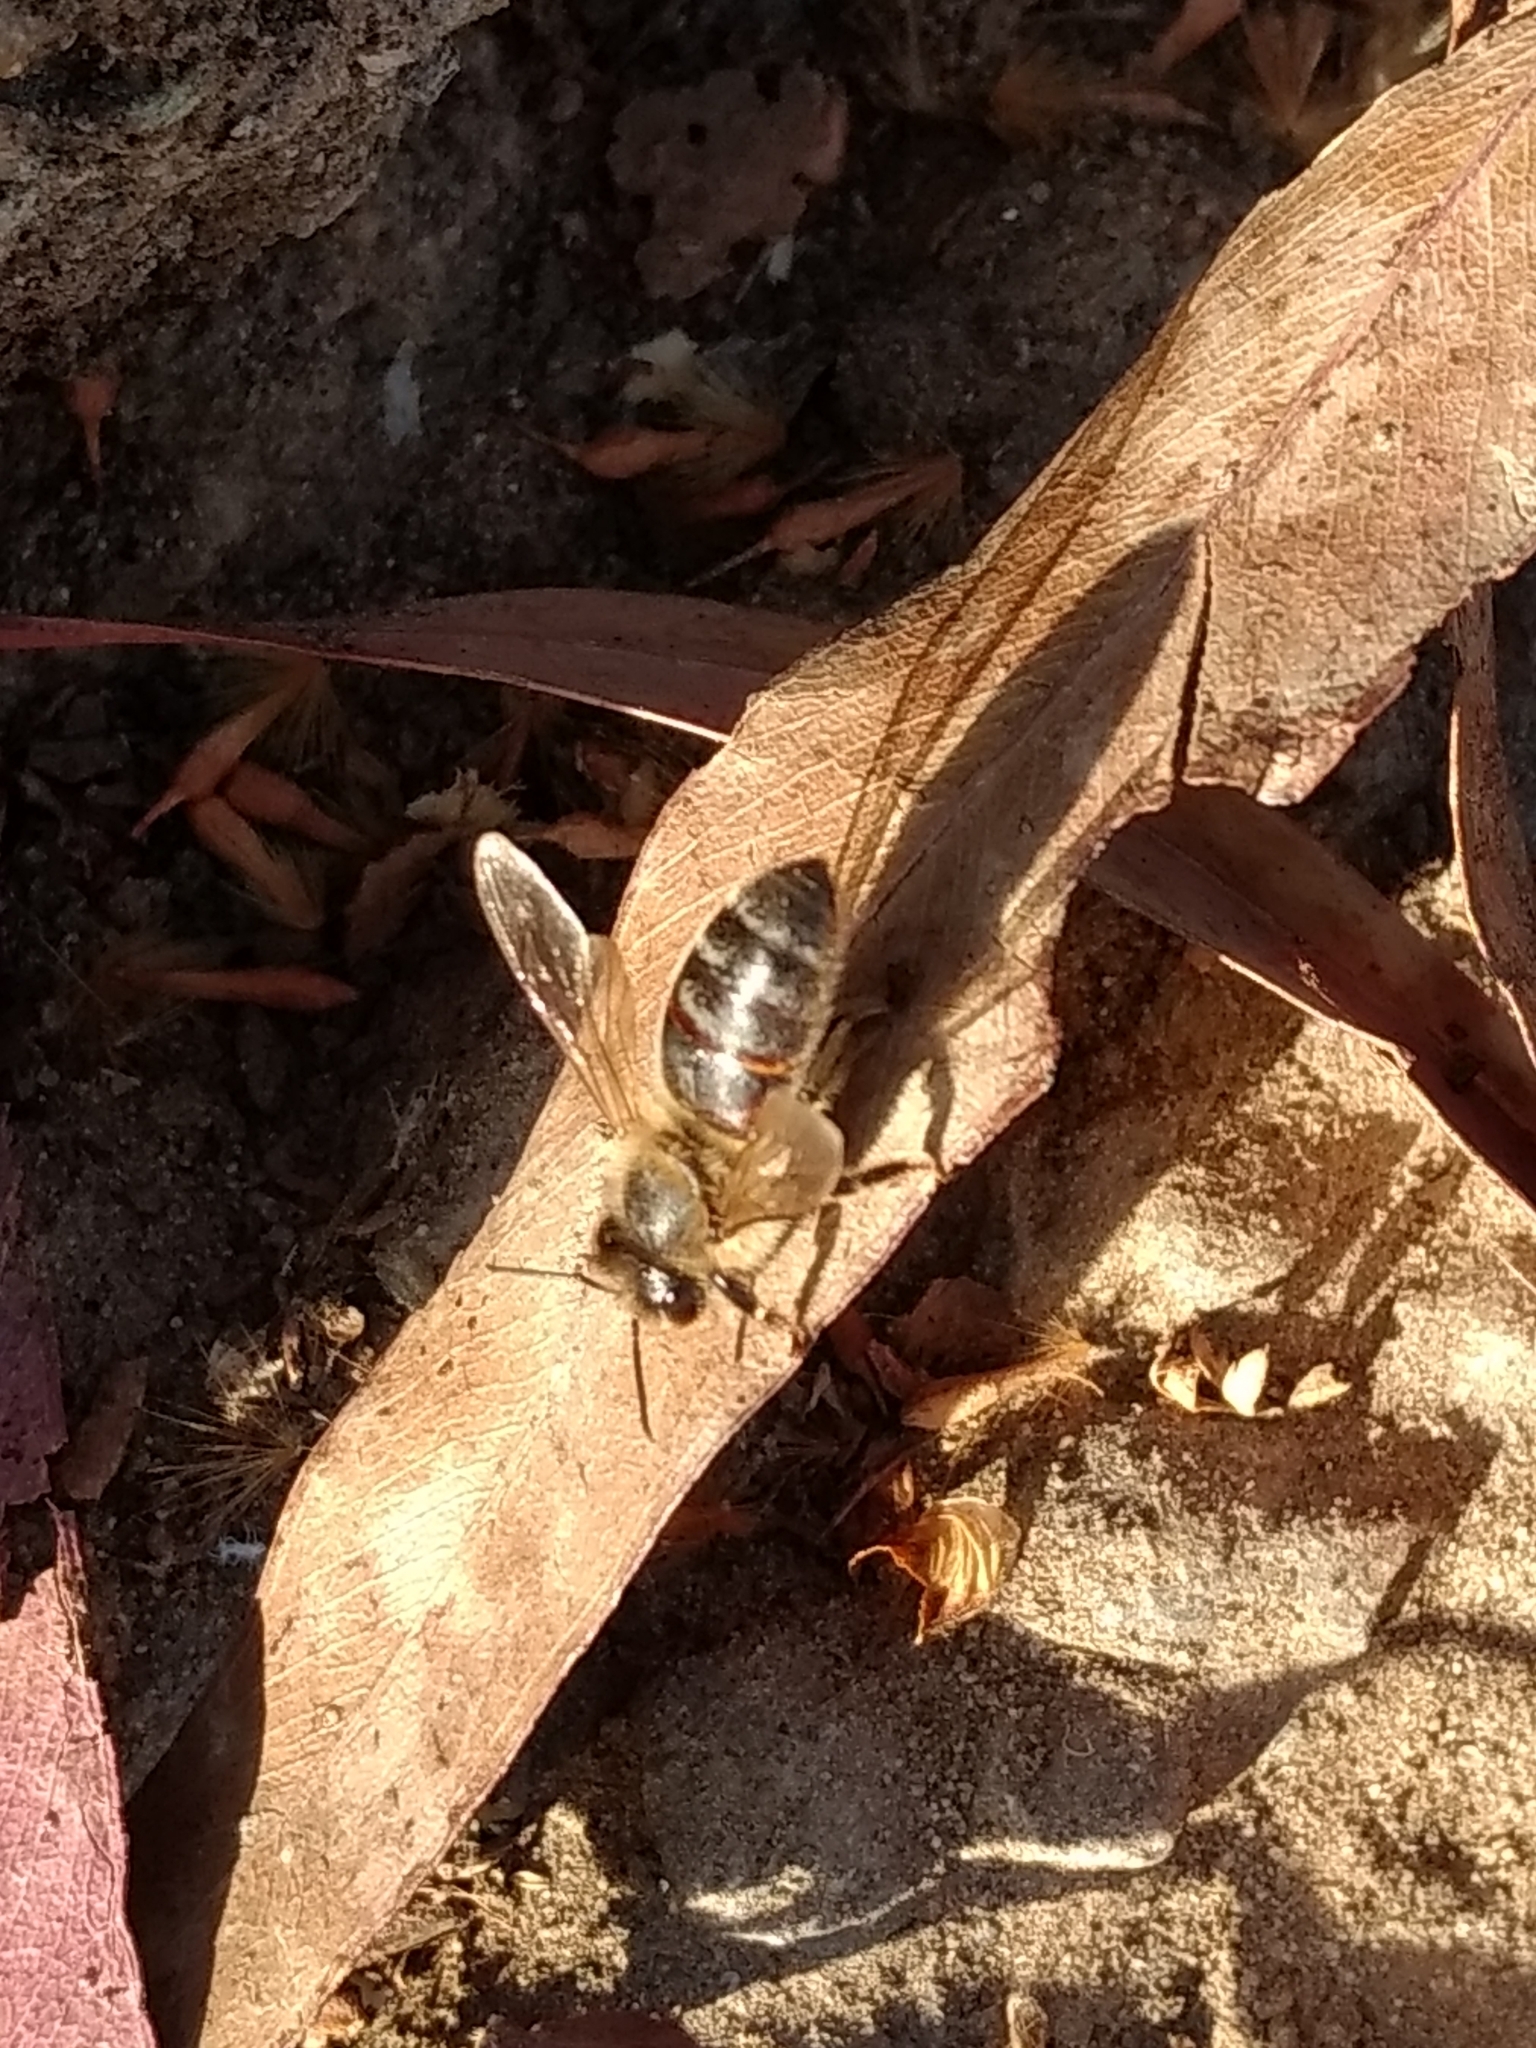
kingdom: Animalia
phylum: Arthropoda
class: Insecta
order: Hymenoptera
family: Apidae
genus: Apis
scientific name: Apis mellifera
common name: Honey bee
